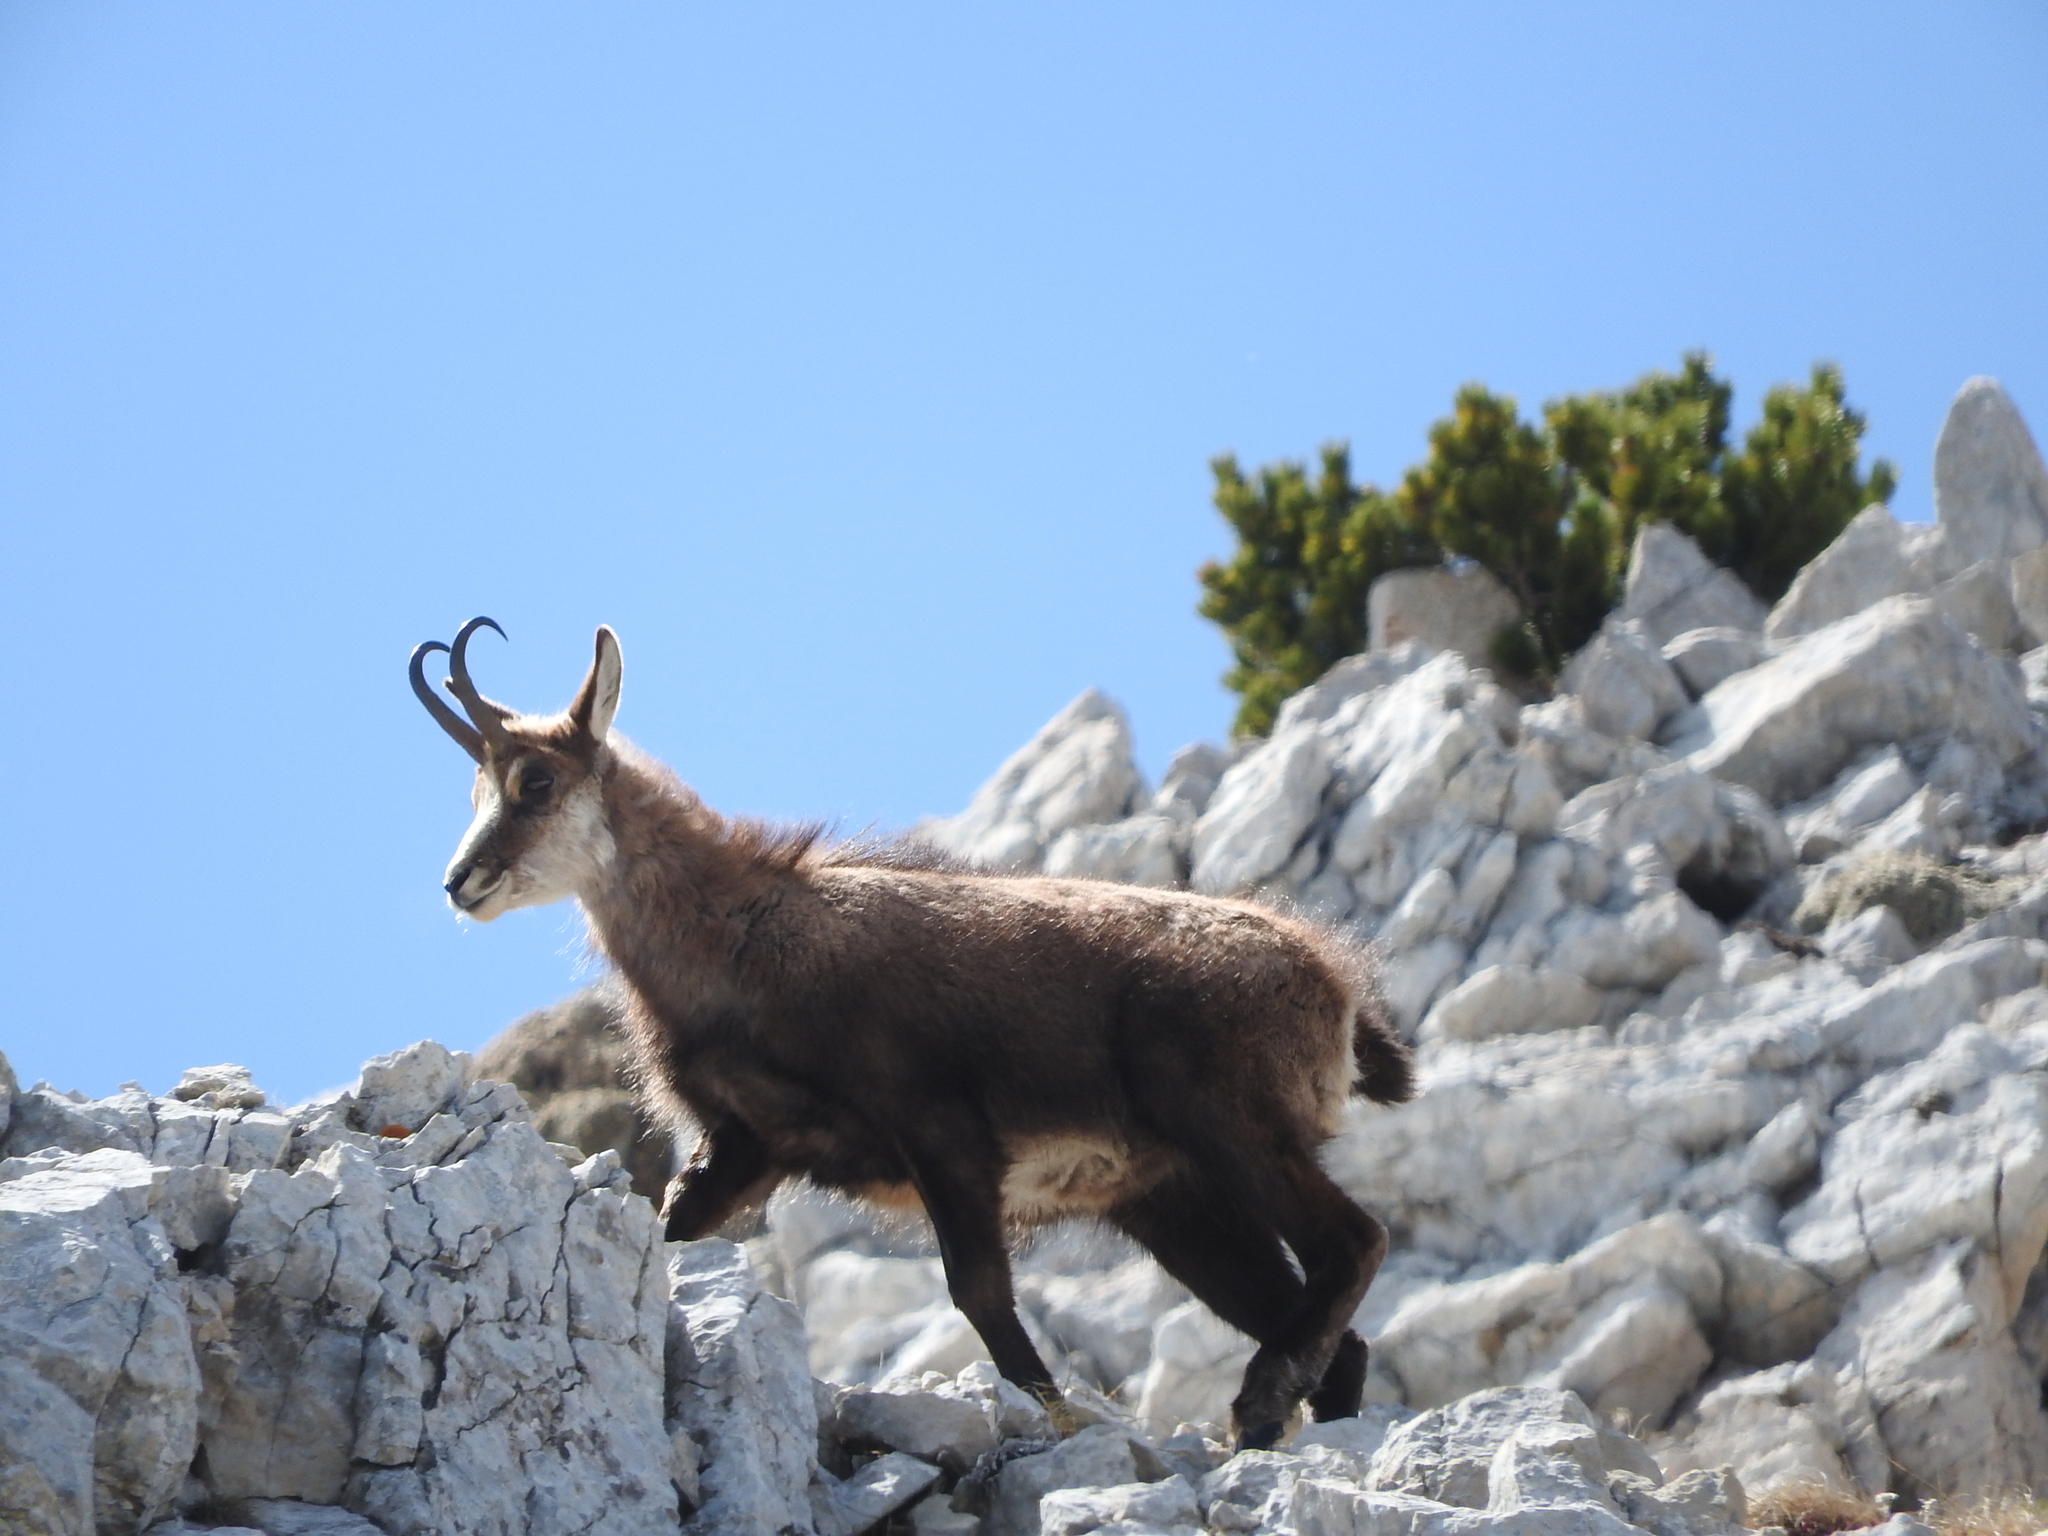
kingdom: Animalia
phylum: Chordata
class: Mammalia
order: Artiodactyla
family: Bovidae
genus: Rupicapra
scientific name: Rupicapra rupicapra
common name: Chamois
